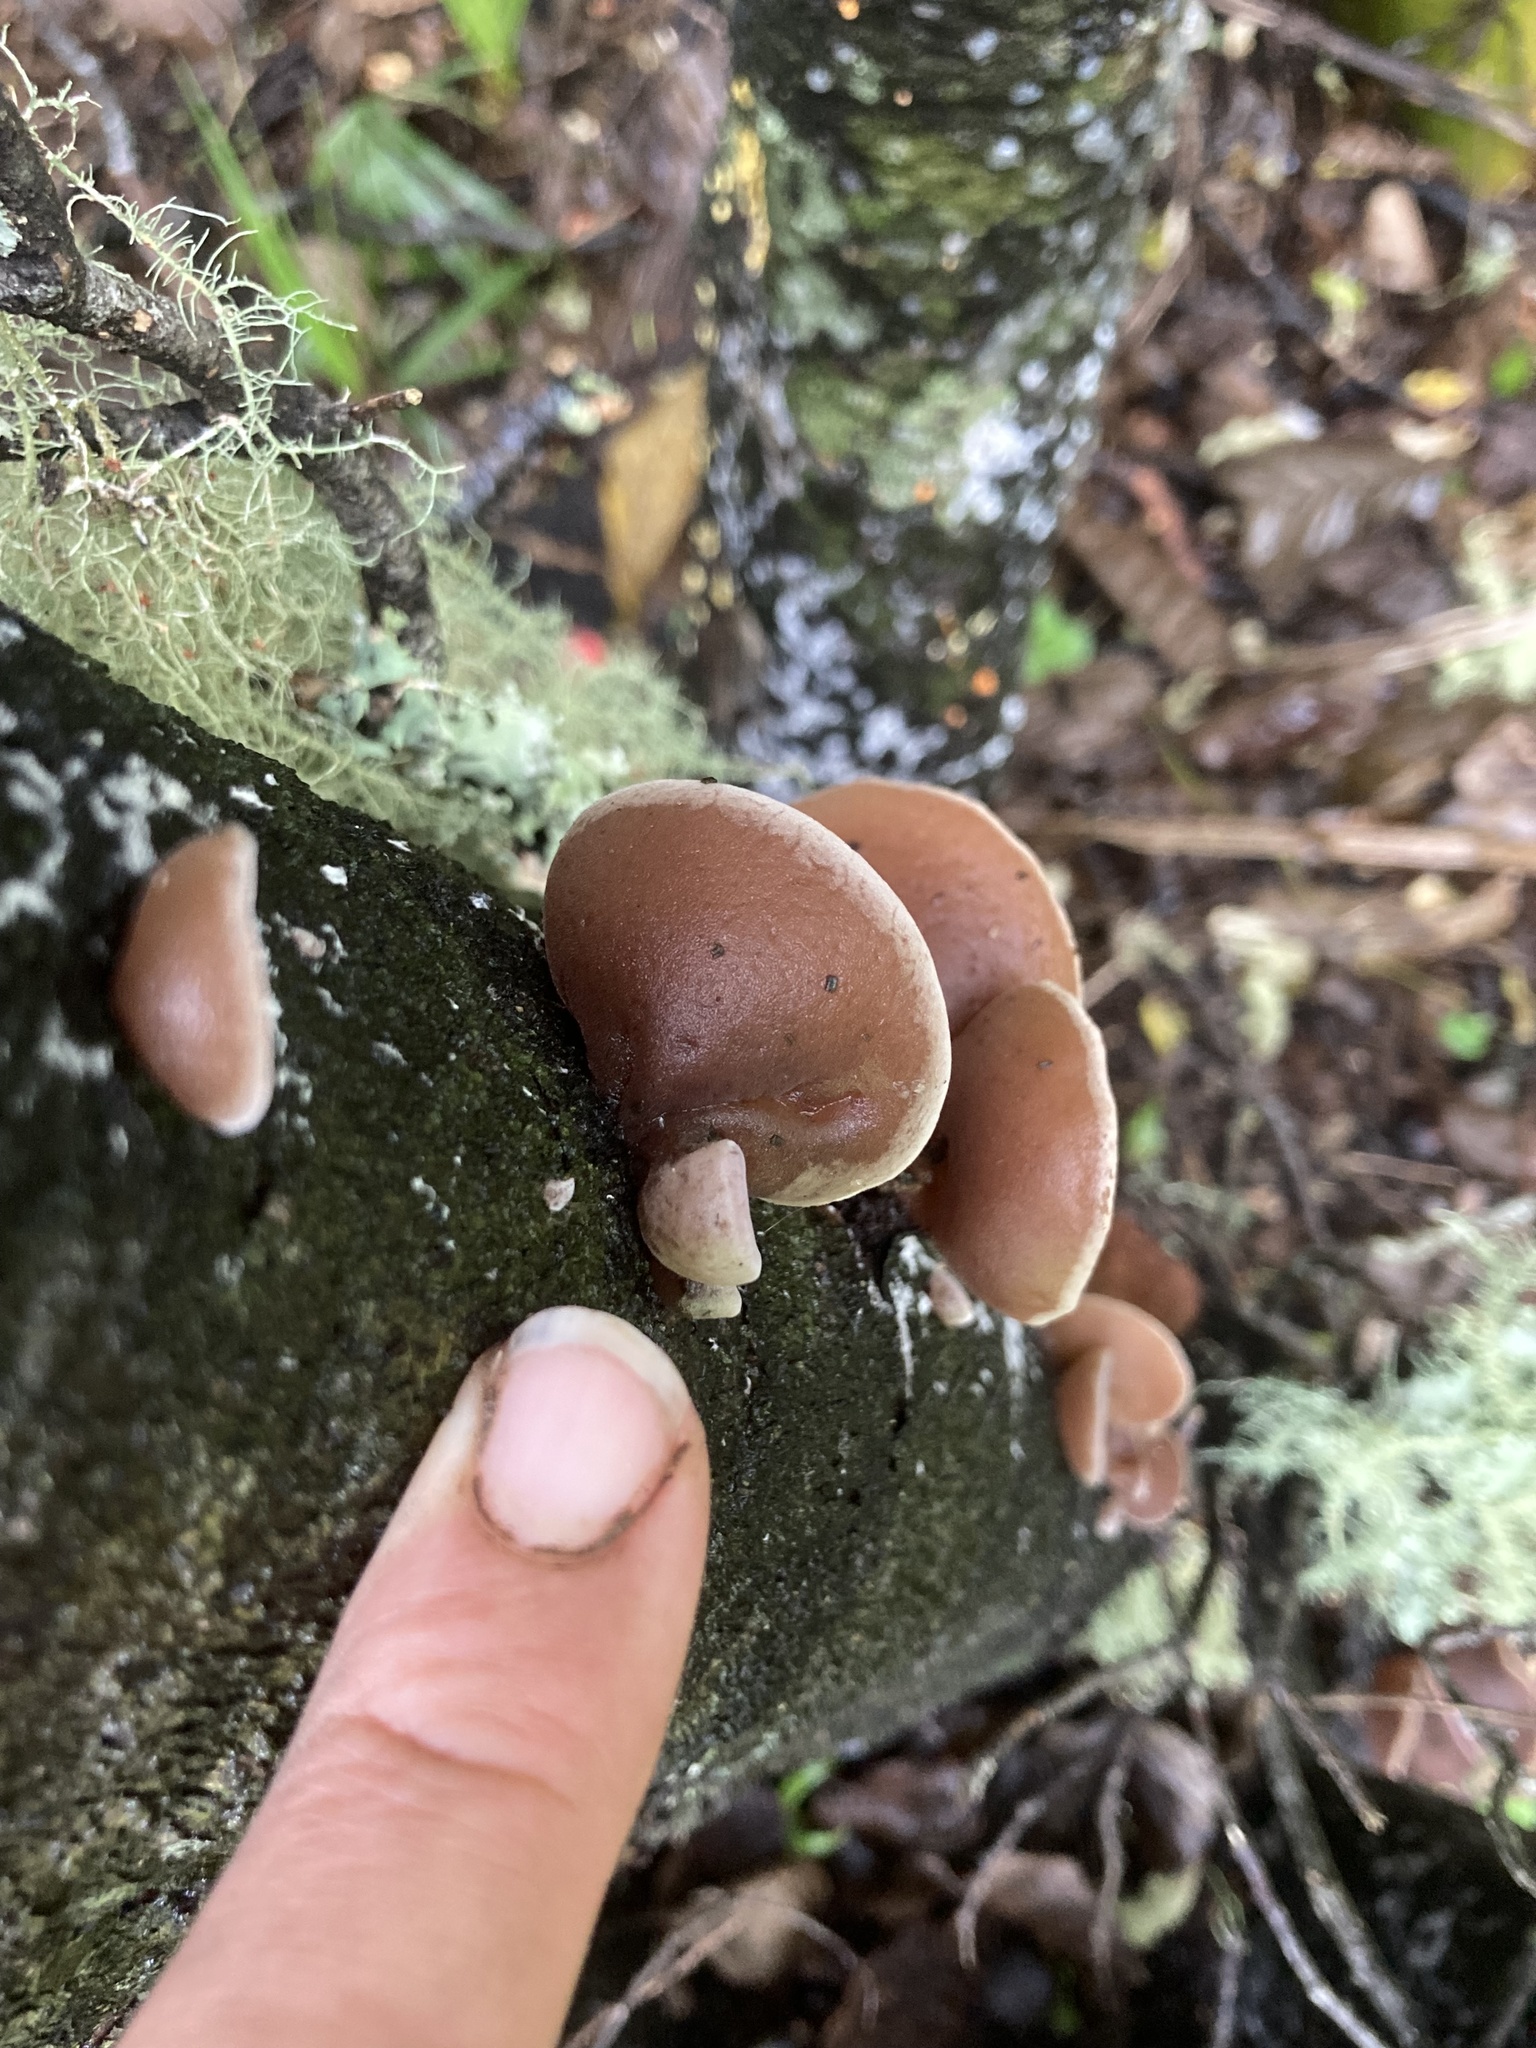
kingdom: Fungi
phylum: Basidiomycota
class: Agaricomycetes
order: Auriculariales
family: Auriculariaceae
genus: Auricularia
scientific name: Auricularia cornea
